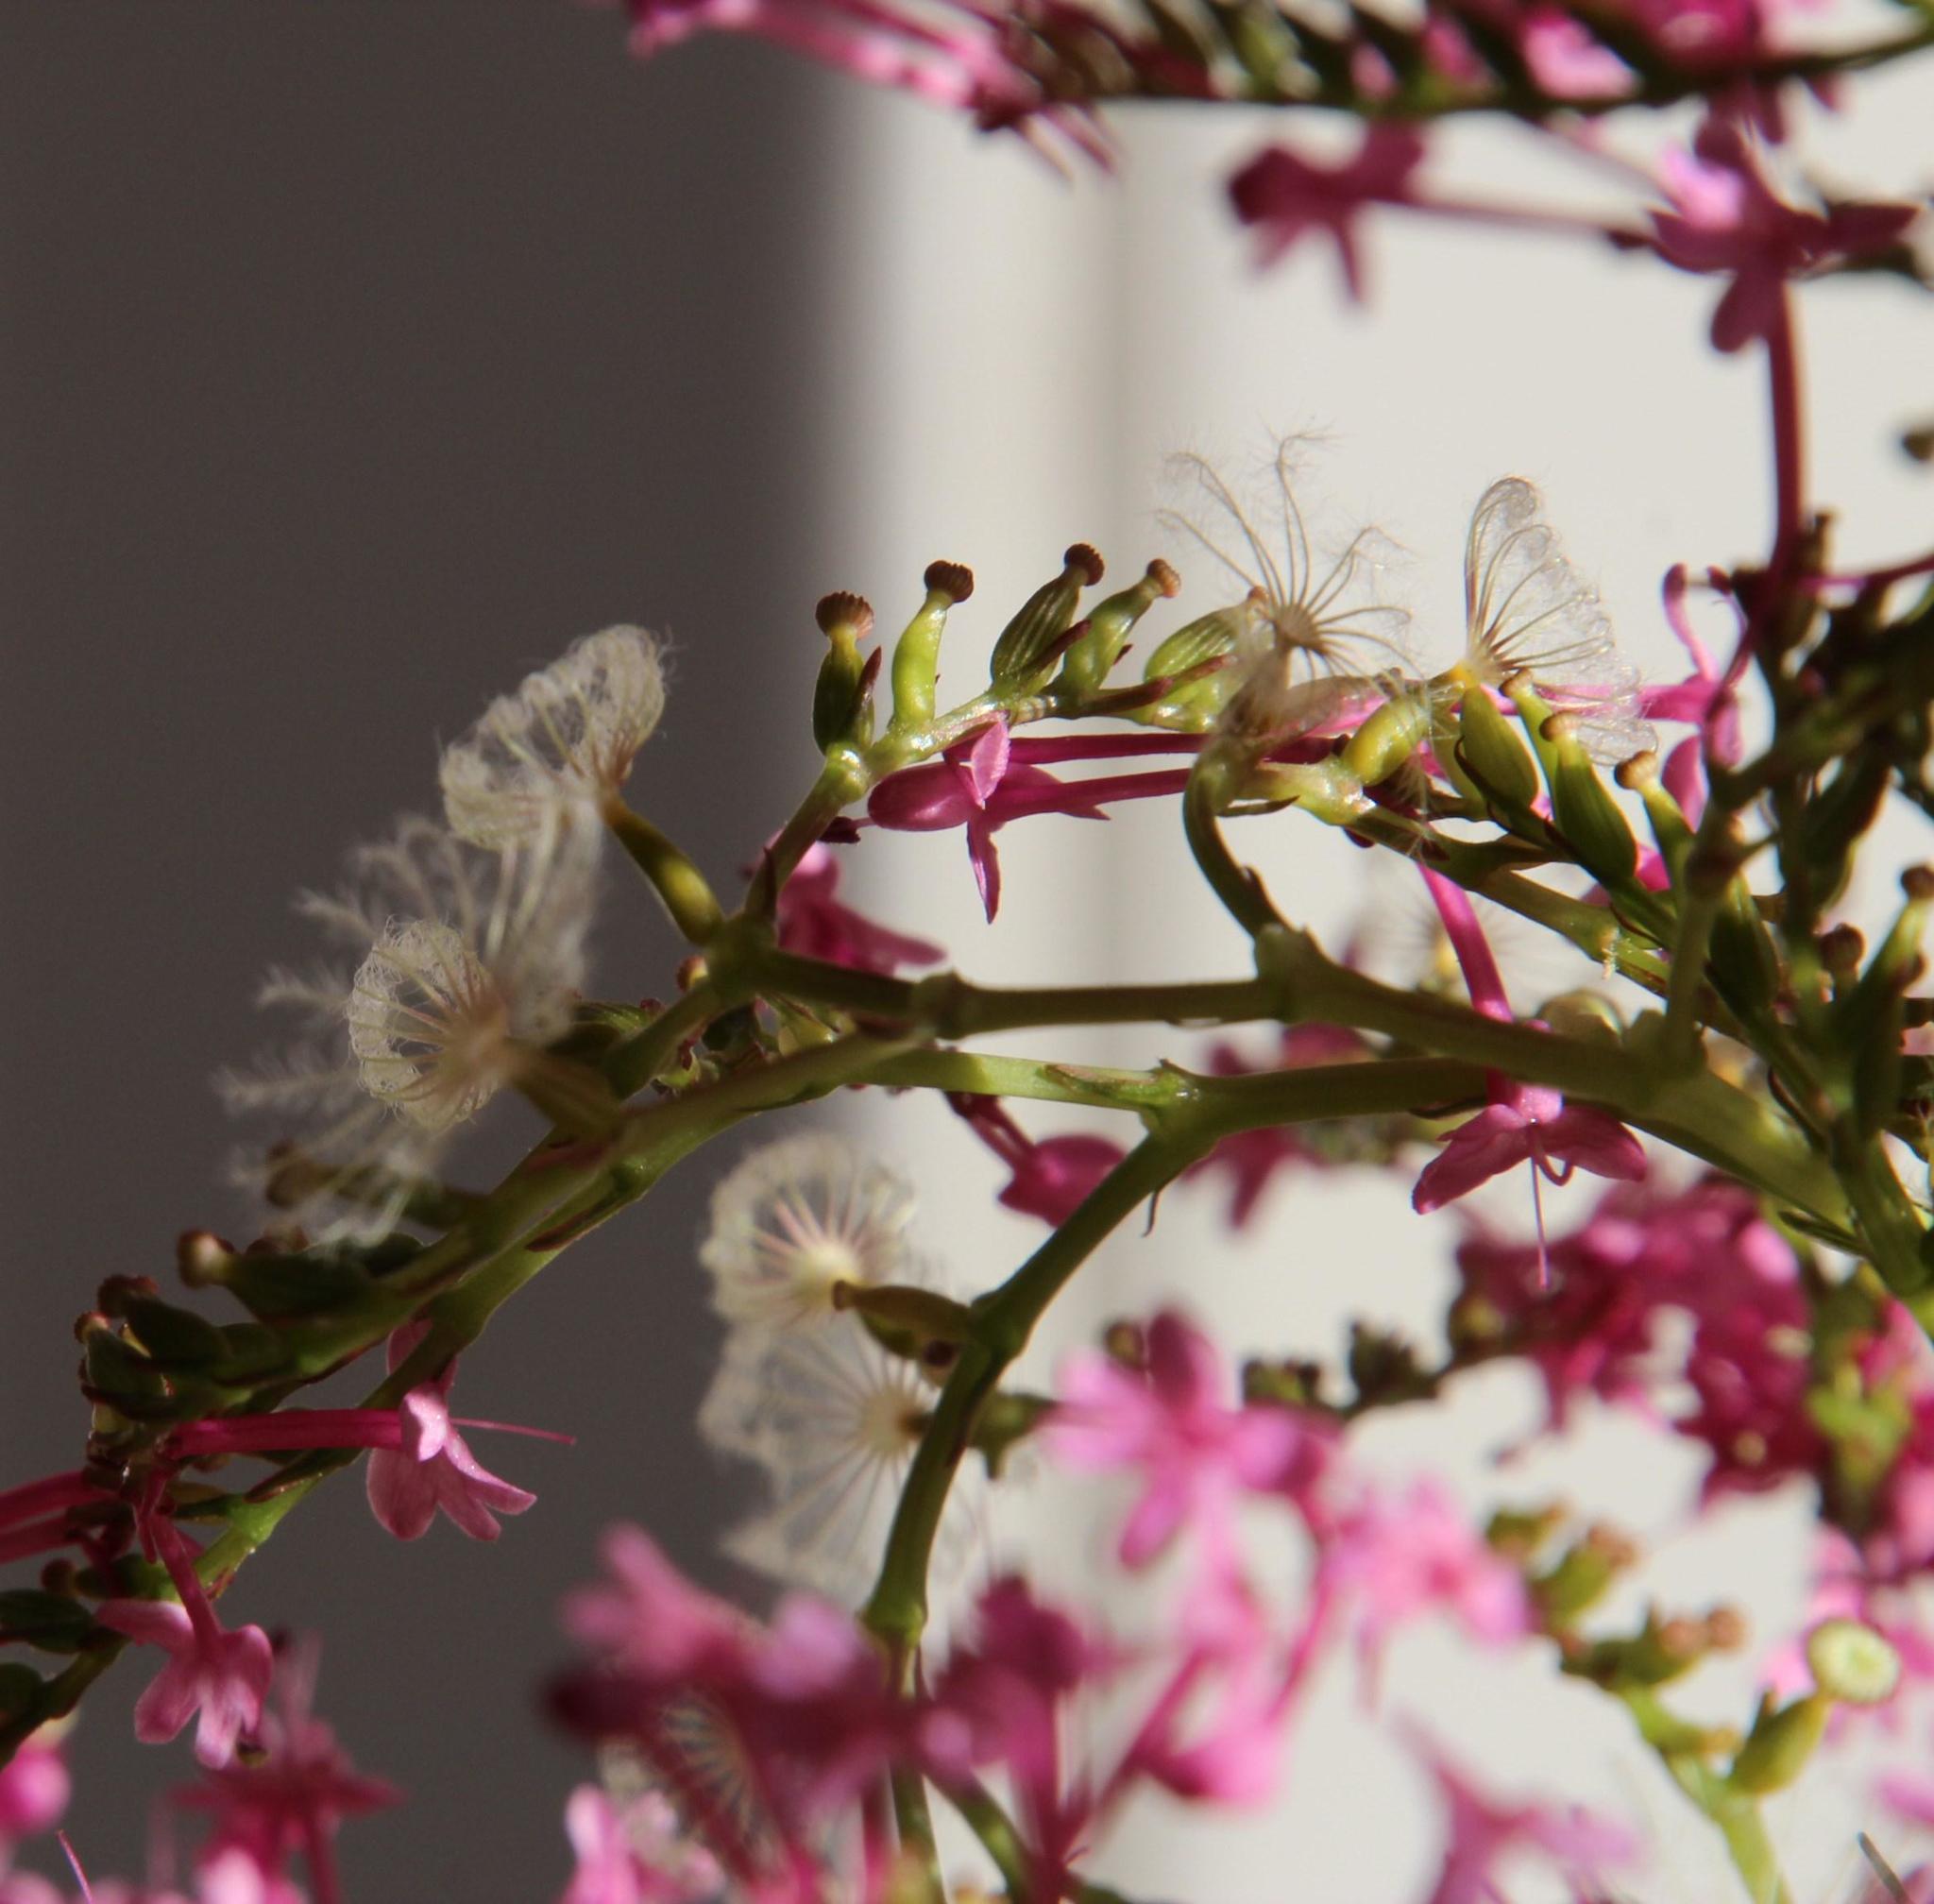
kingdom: Plantae
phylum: Tracheophyta
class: Magnoliopsida
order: Dipsacales
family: Caprifoliaceae
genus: Centranthus
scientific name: Centranthus ruber
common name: Red valerian
